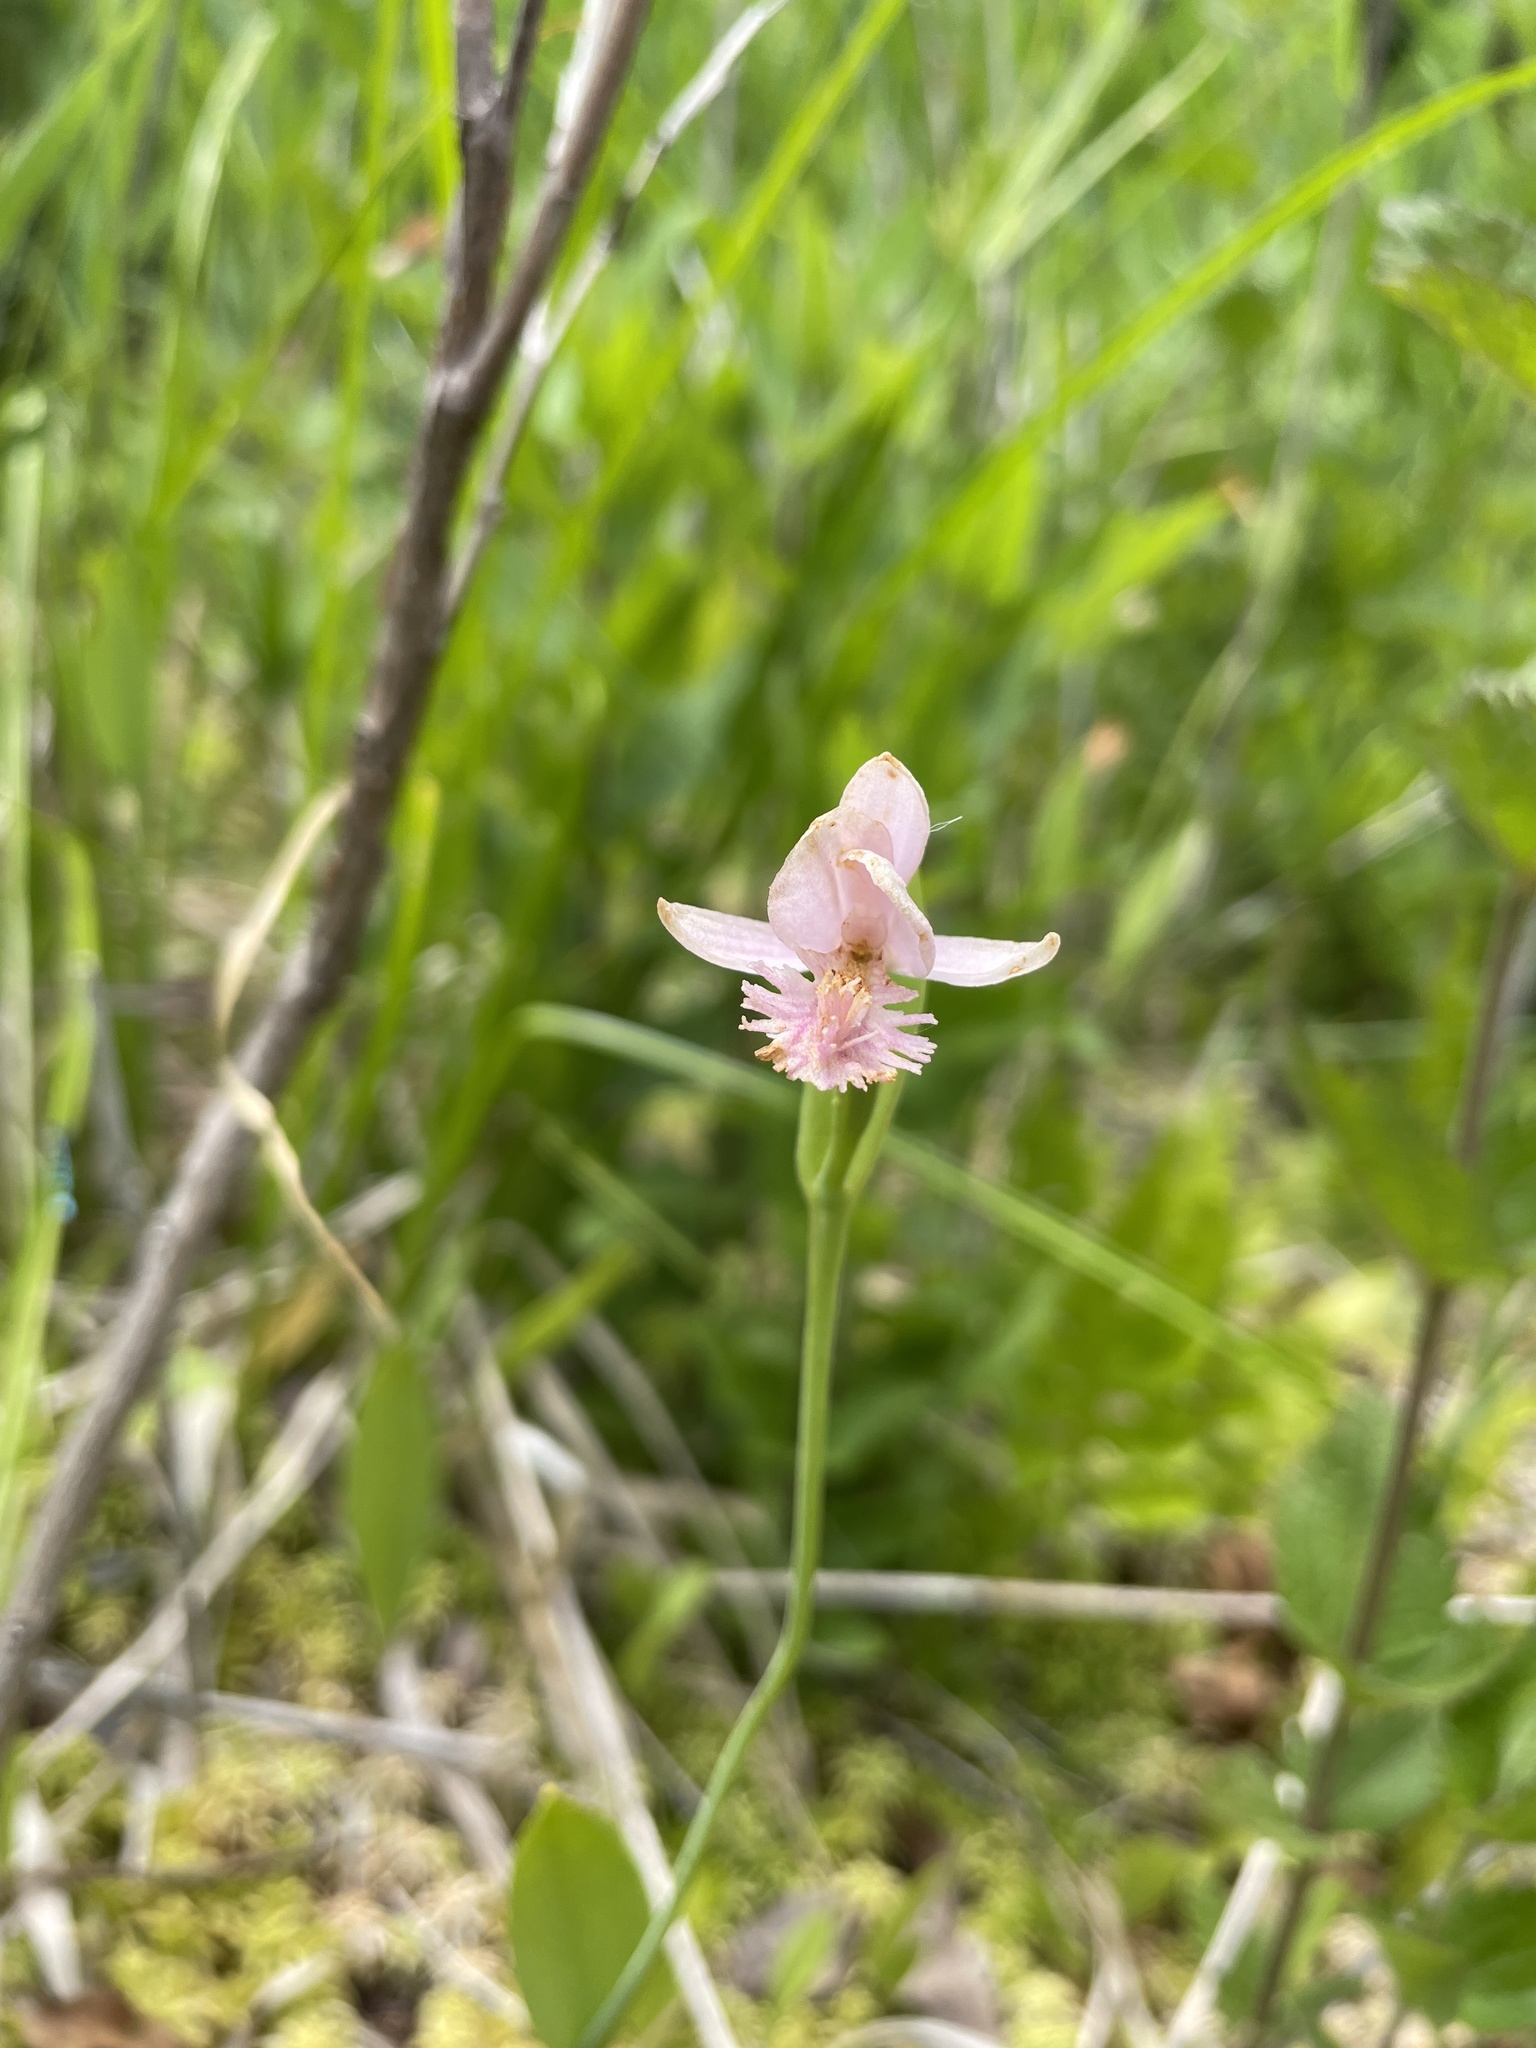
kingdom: Plantae
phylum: Tracheophyta
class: Liliopsida
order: Asparagales
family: Orchidaceae
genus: Pogonia
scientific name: Pogonia ophioglossoides
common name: Rose pogonia
